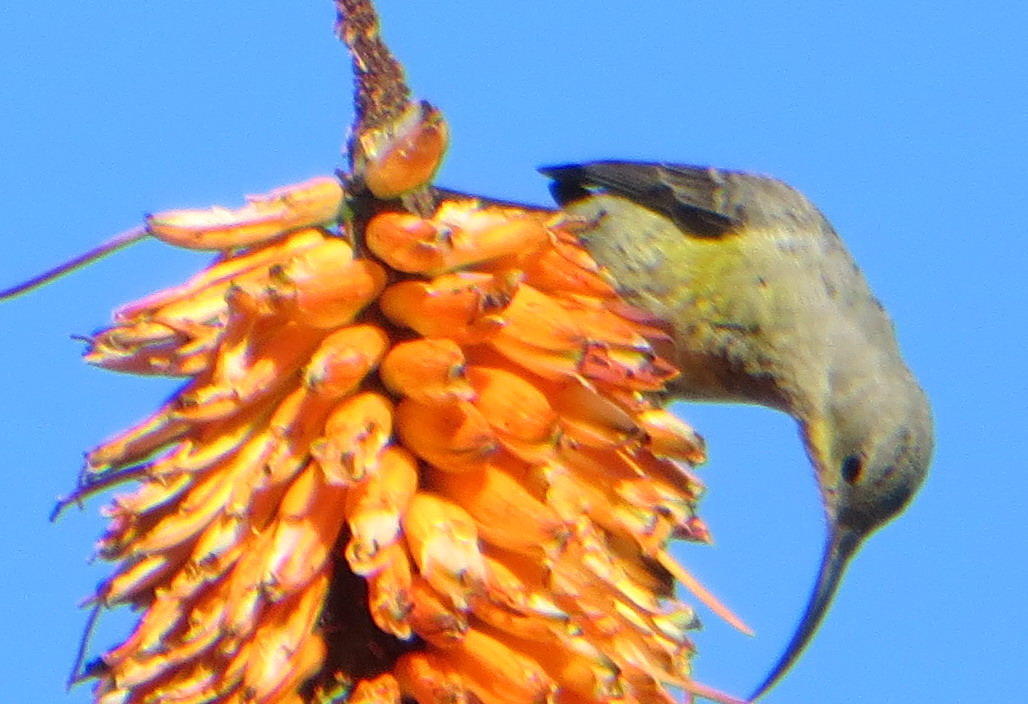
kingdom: Animalia
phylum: Chordata
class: Aves
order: Passeriformes
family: Nectariniidae
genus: Nectarinia
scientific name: Nectarinia famosa
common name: Malachite sunbird
